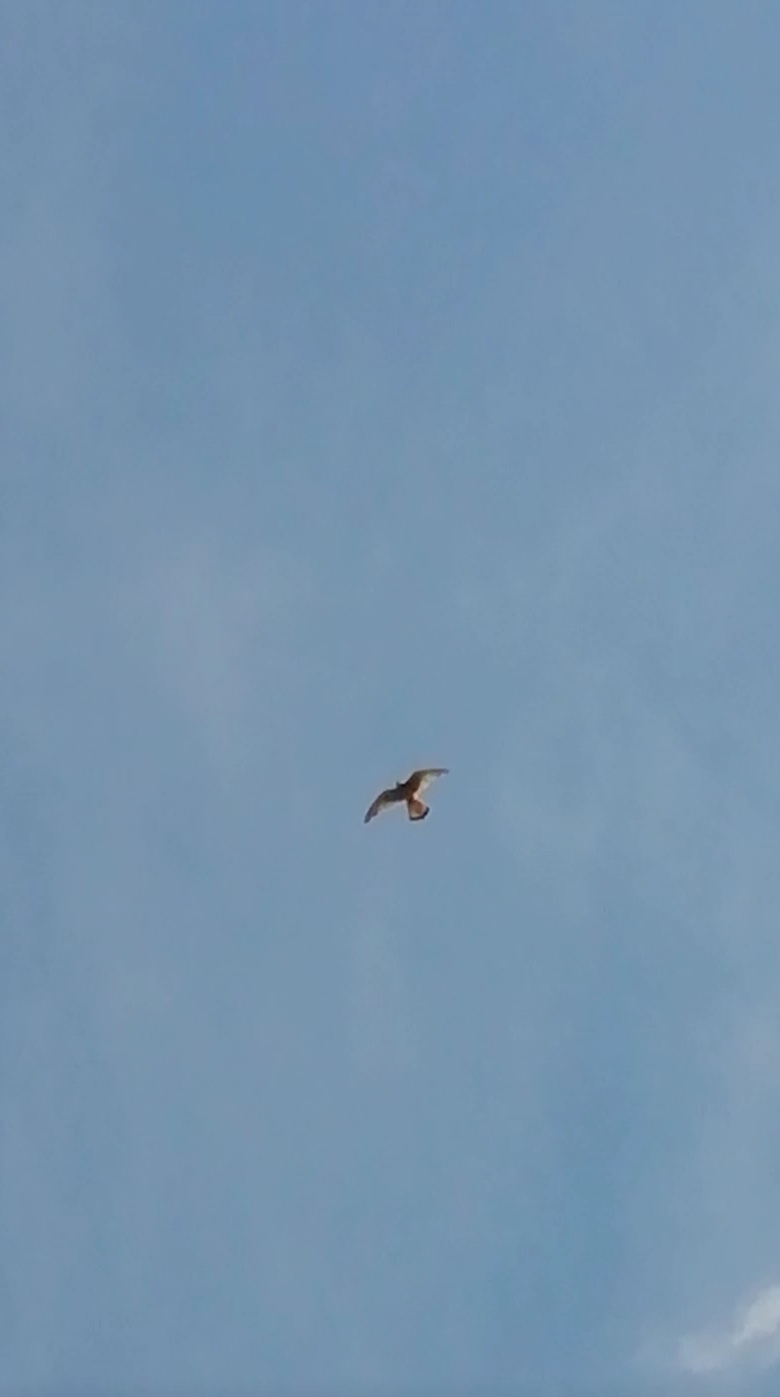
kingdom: Animalia
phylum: Chordata
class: Aves
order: Falconiformes
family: Falconidae
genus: Falco
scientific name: Falco tinnunculus
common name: Common kestrel
